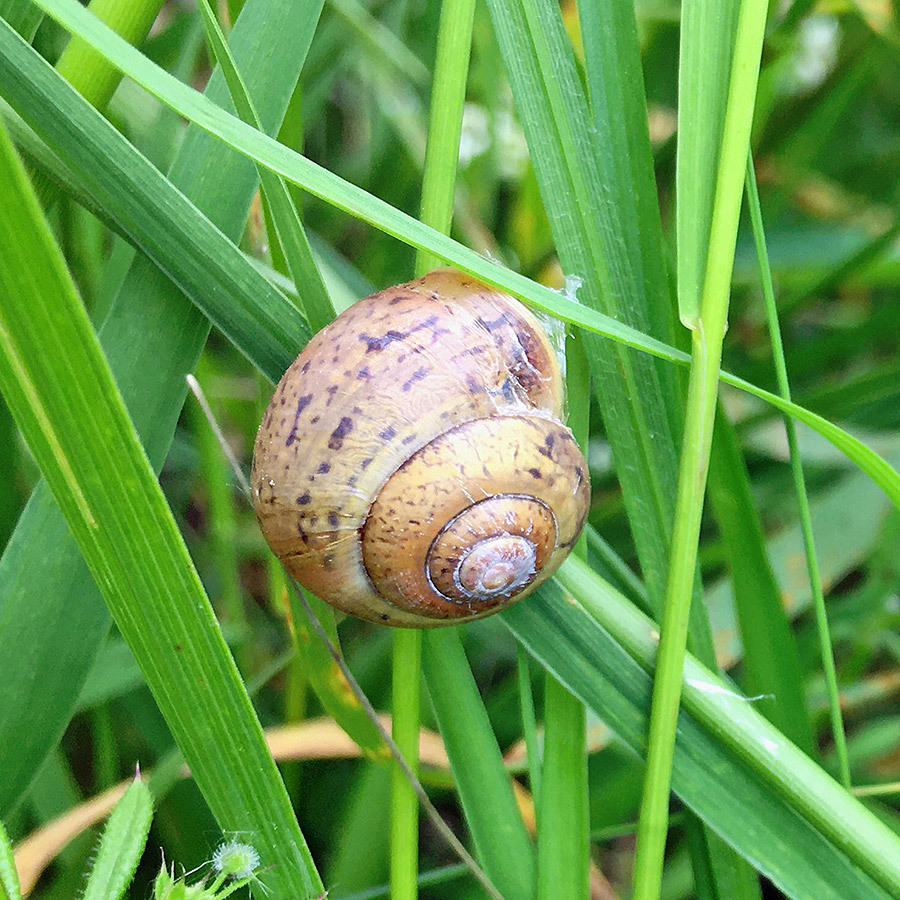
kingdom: Animalia
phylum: Mollusca
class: Gastropoda
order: Stylommatophora
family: Camaenidae
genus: Fruticicola
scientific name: Fruticicola fruticum
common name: Bush snail
